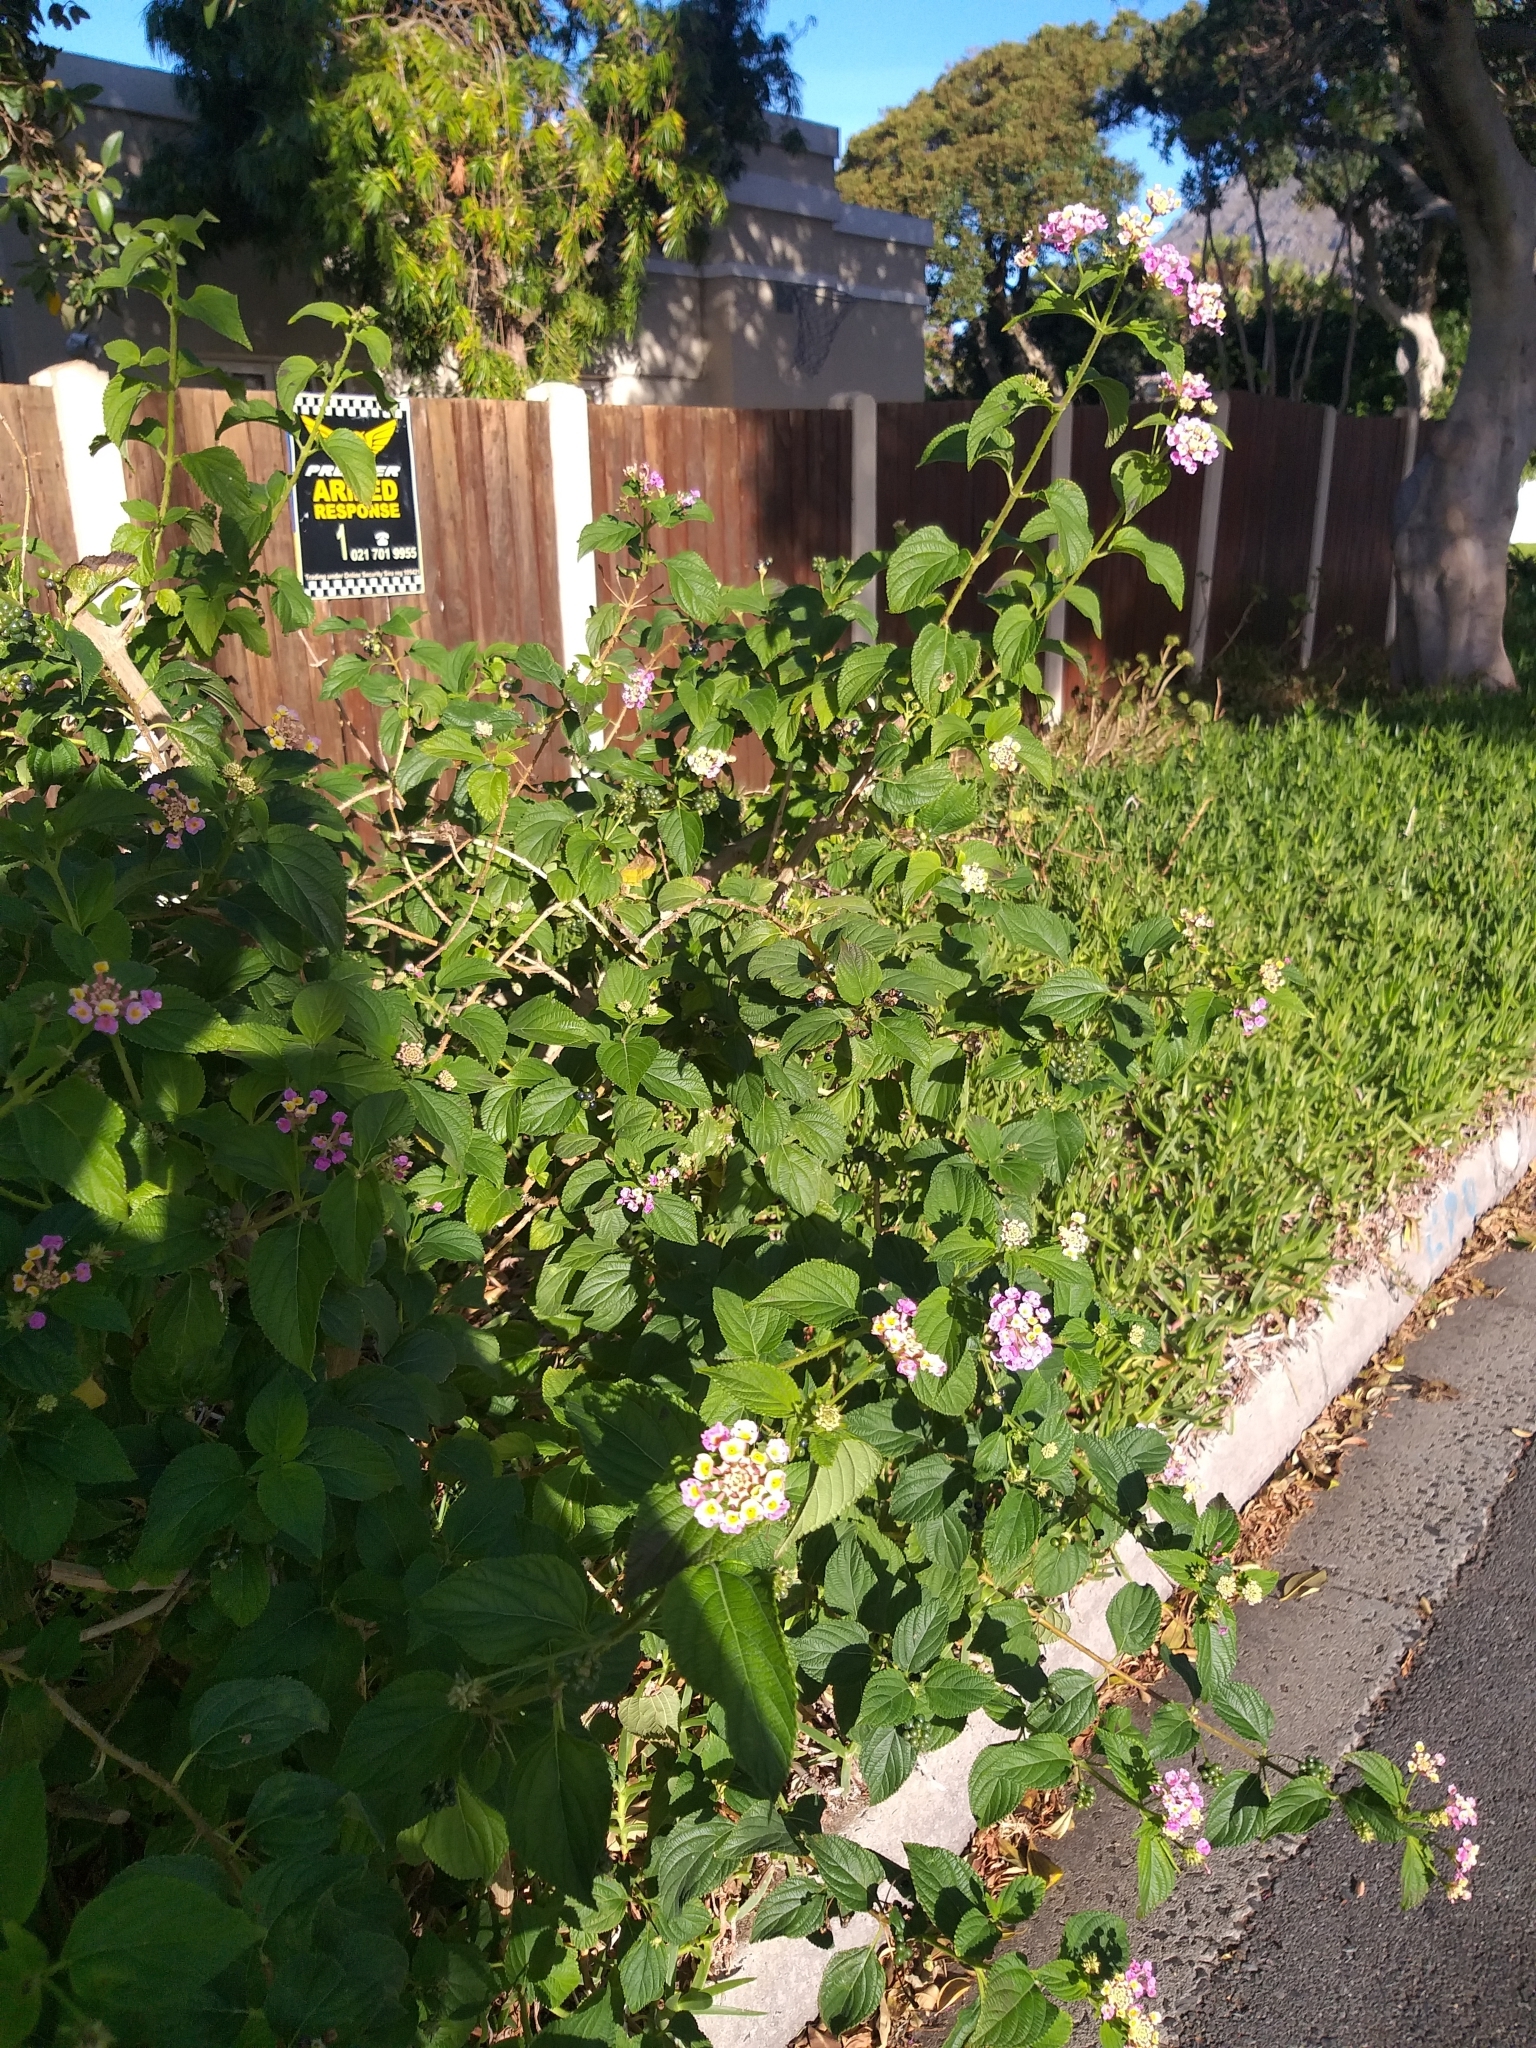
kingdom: Plantae
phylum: Tracheophyta
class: Magnoliopsida
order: Lamiales
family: Verbenaceae
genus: Lantana
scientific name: Lantana camara
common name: Lantana
